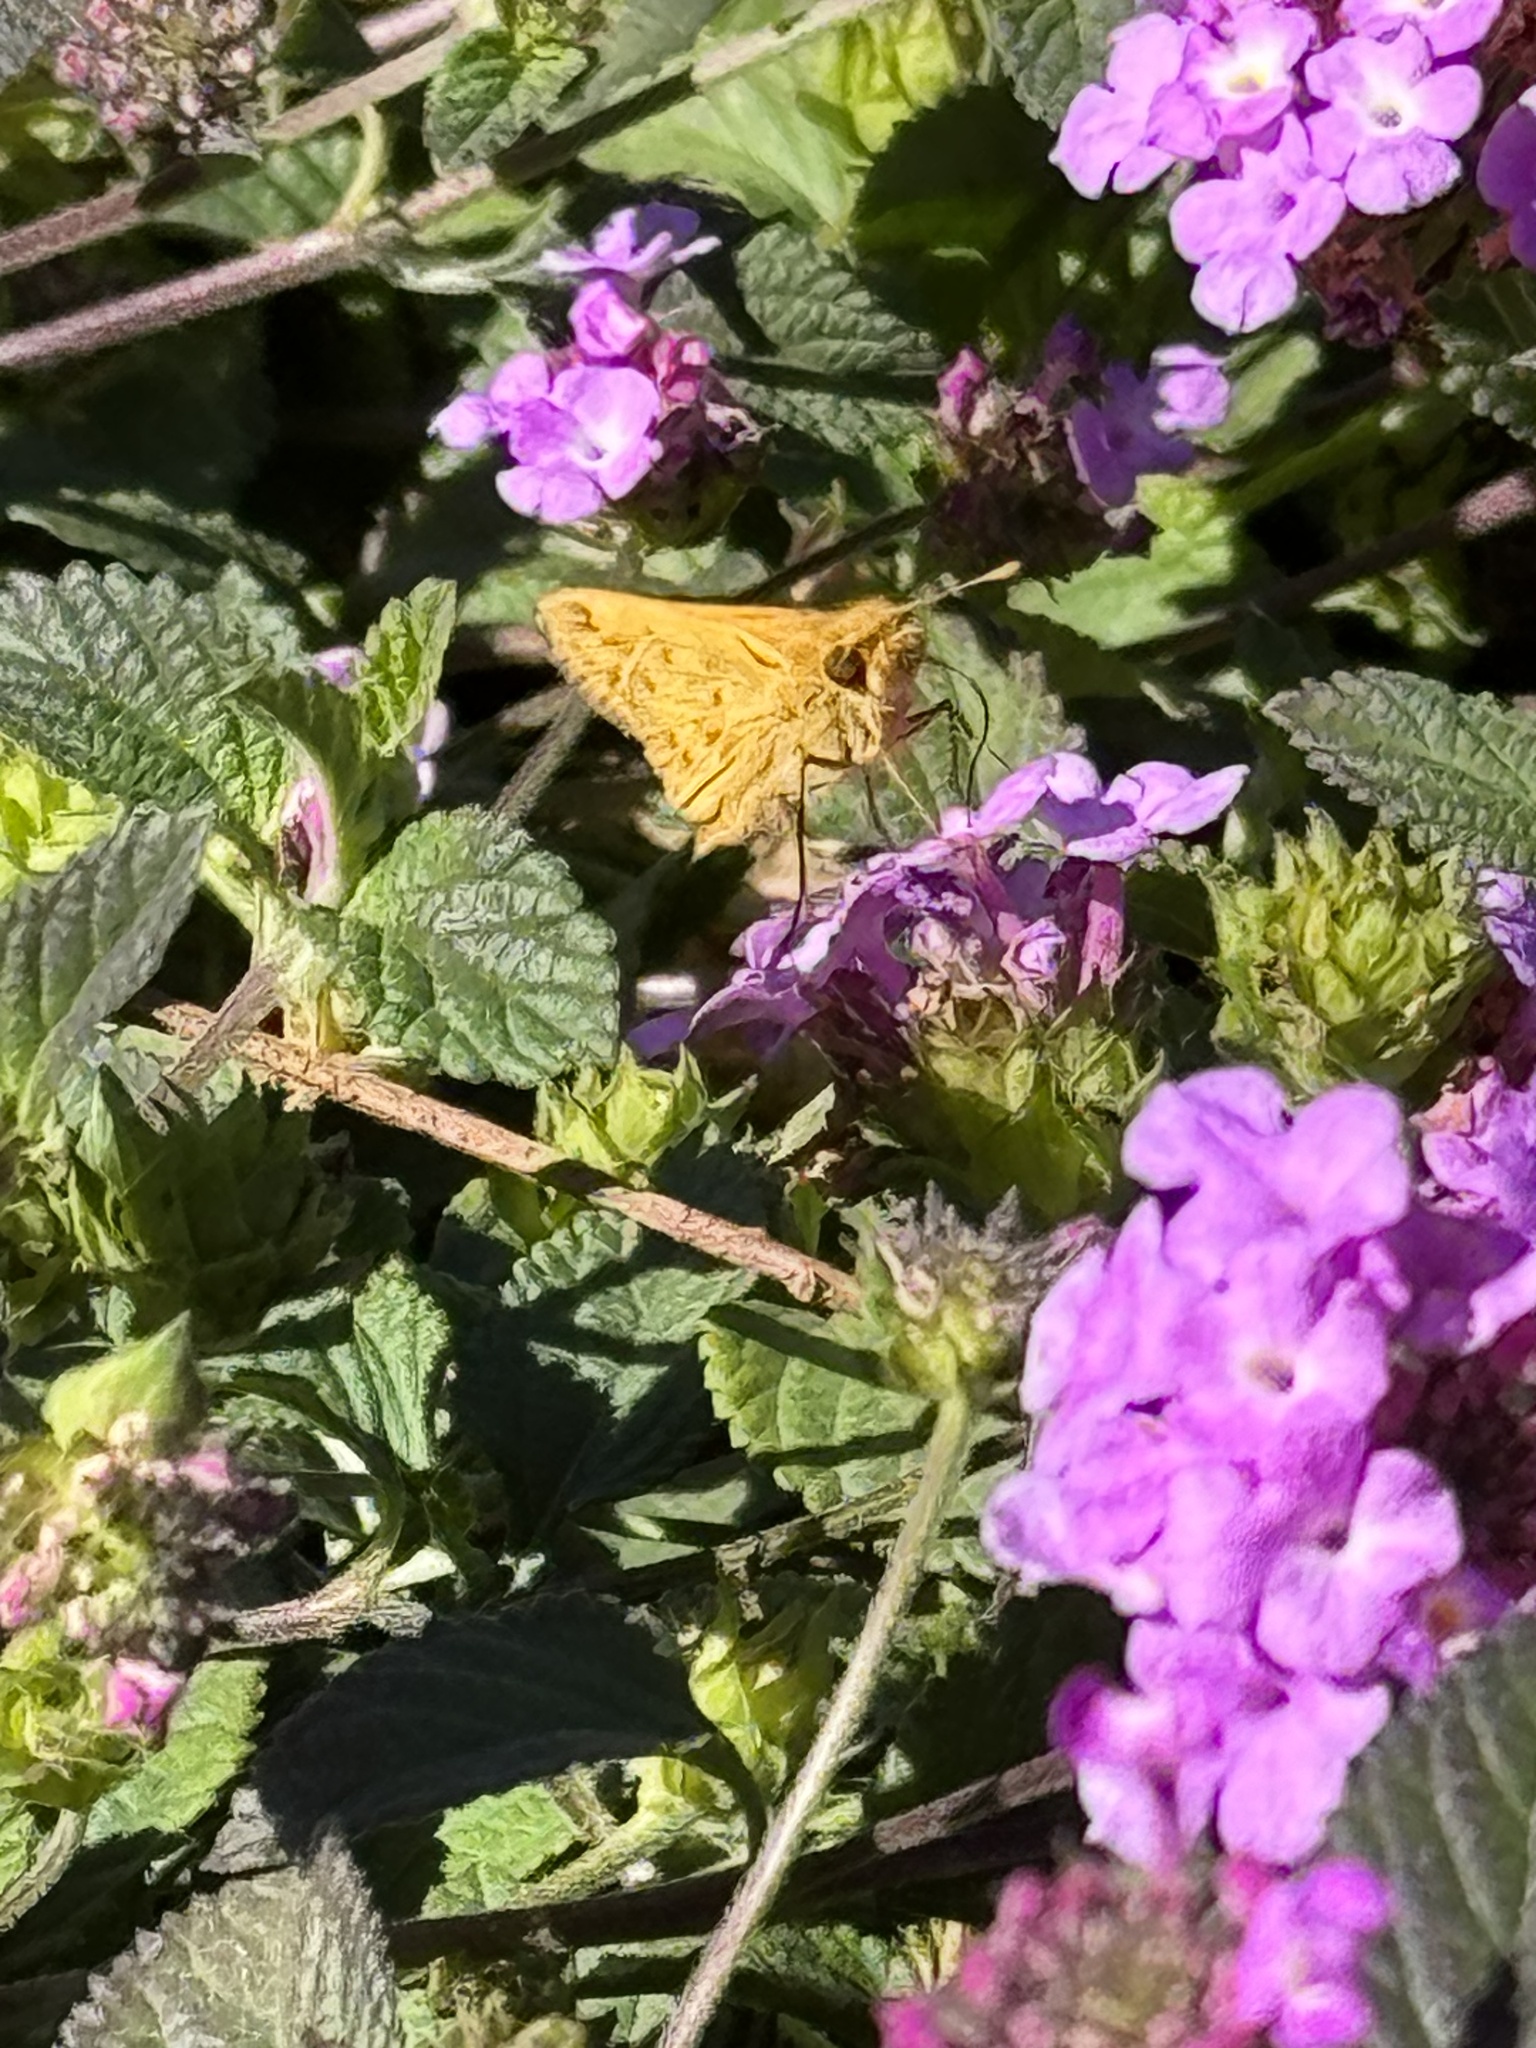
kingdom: Animalia
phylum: Arthropoda
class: Insecta
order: Lepidoptera
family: Hesperiidae
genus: Hylephila
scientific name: Hylephila phyleus
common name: Fiery skipper
